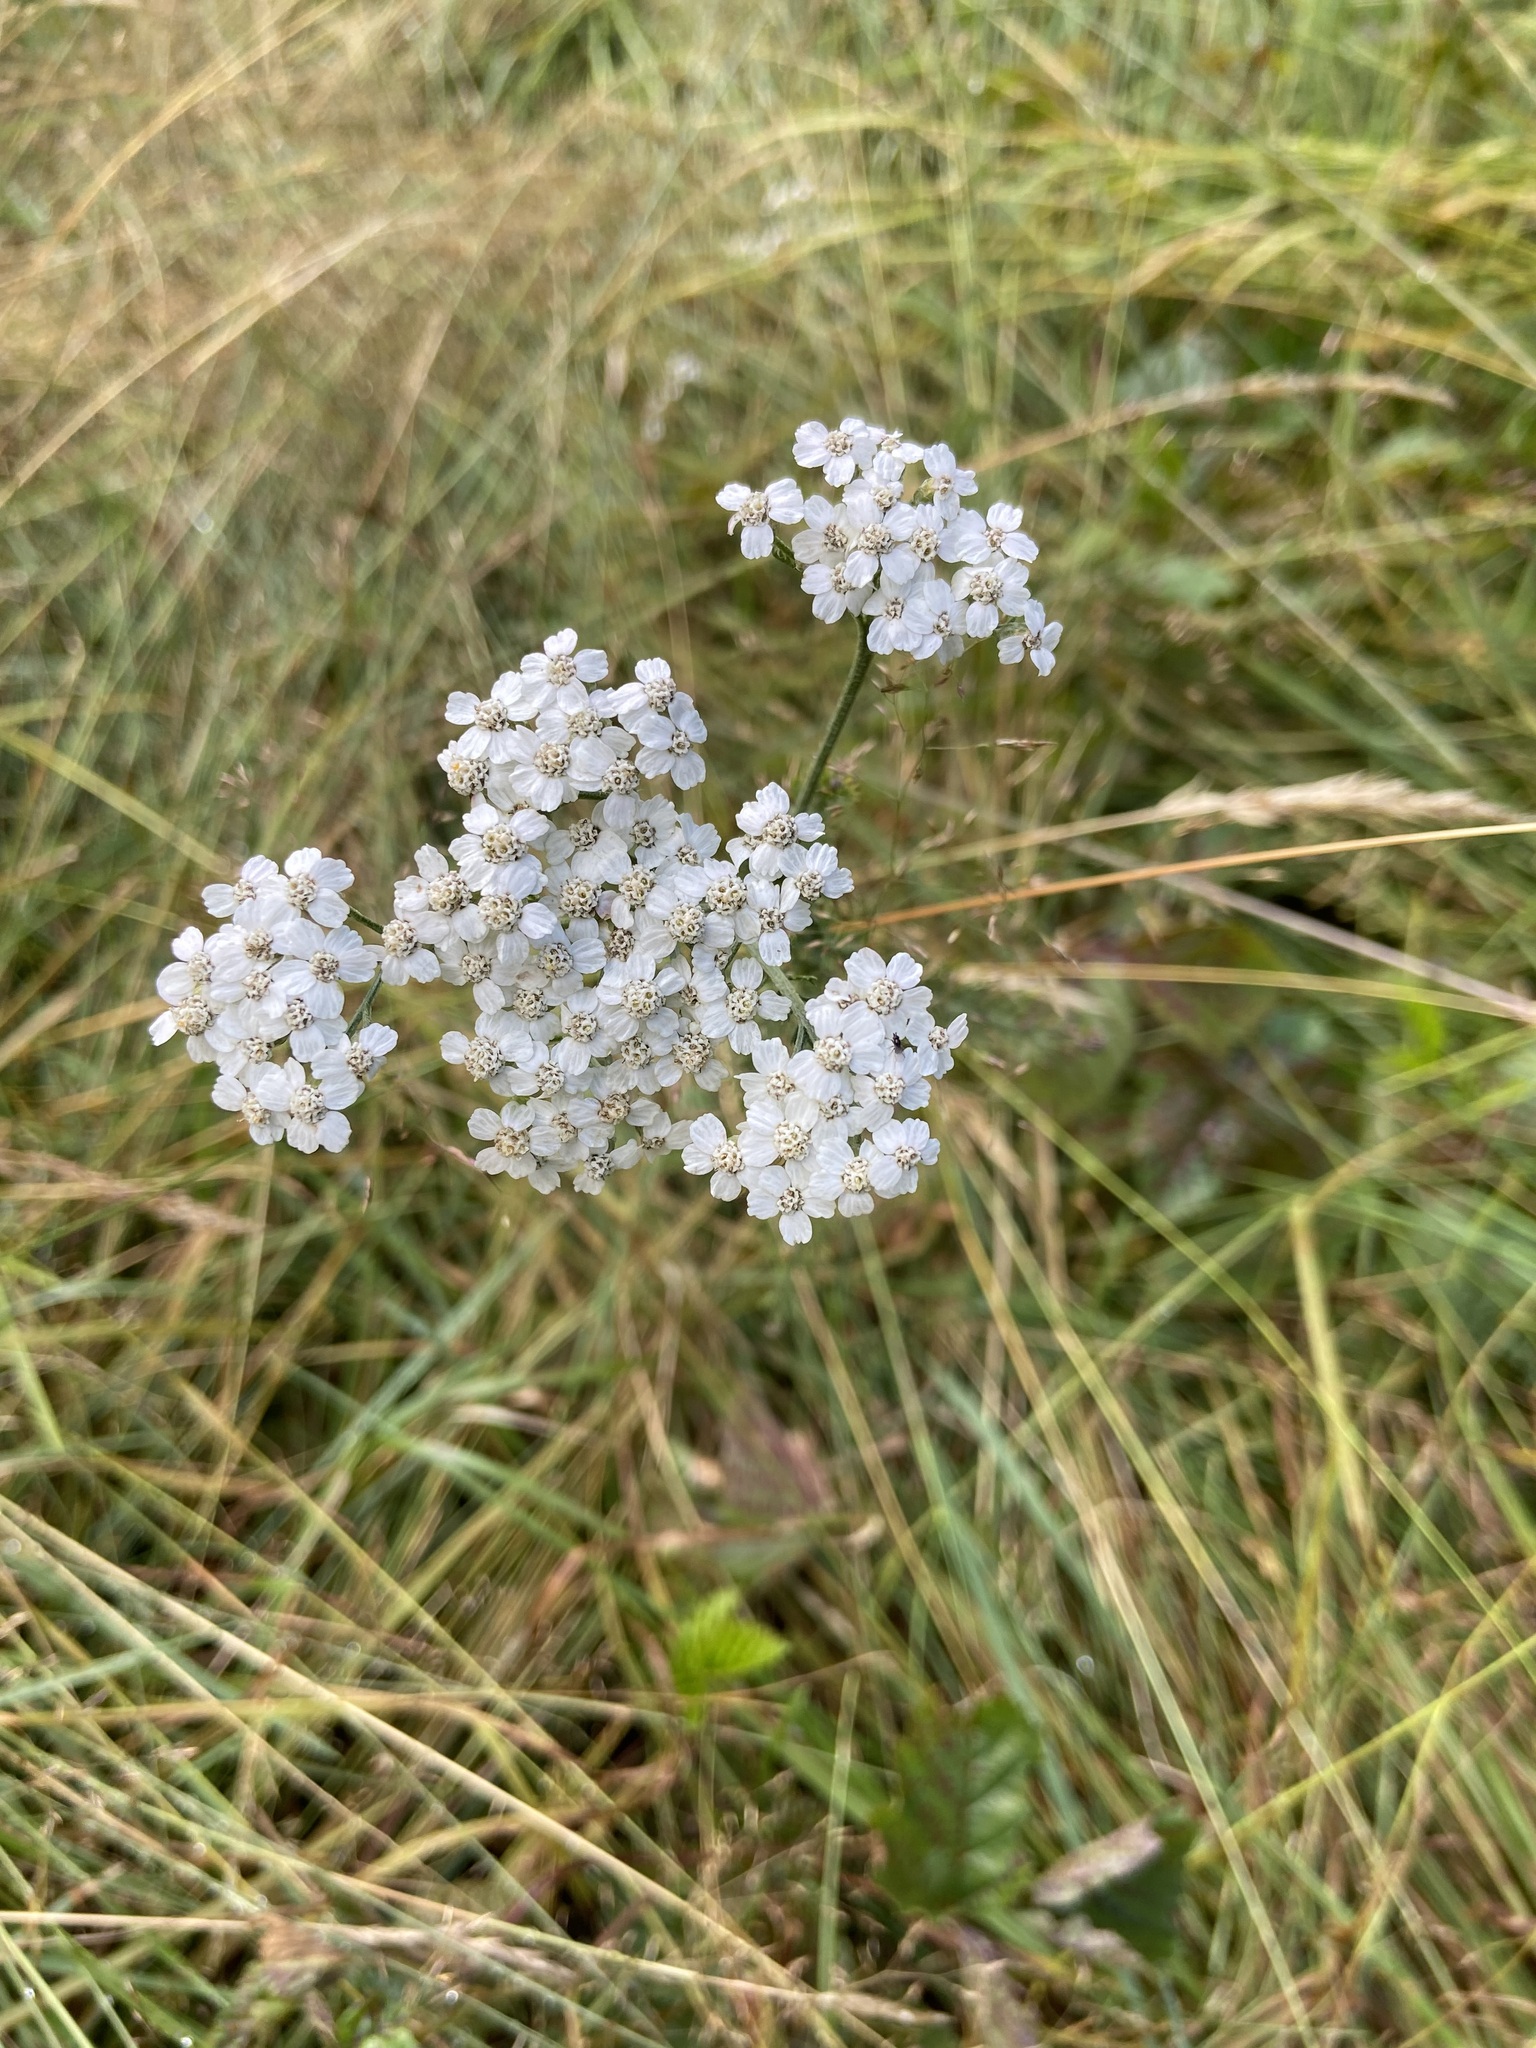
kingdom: Plantae
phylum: Tracheophyta
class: Magnoliopsida
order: Asterales
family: Asteraceae
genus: Achillea
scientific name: Achillea millefolium
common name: Yarrow
